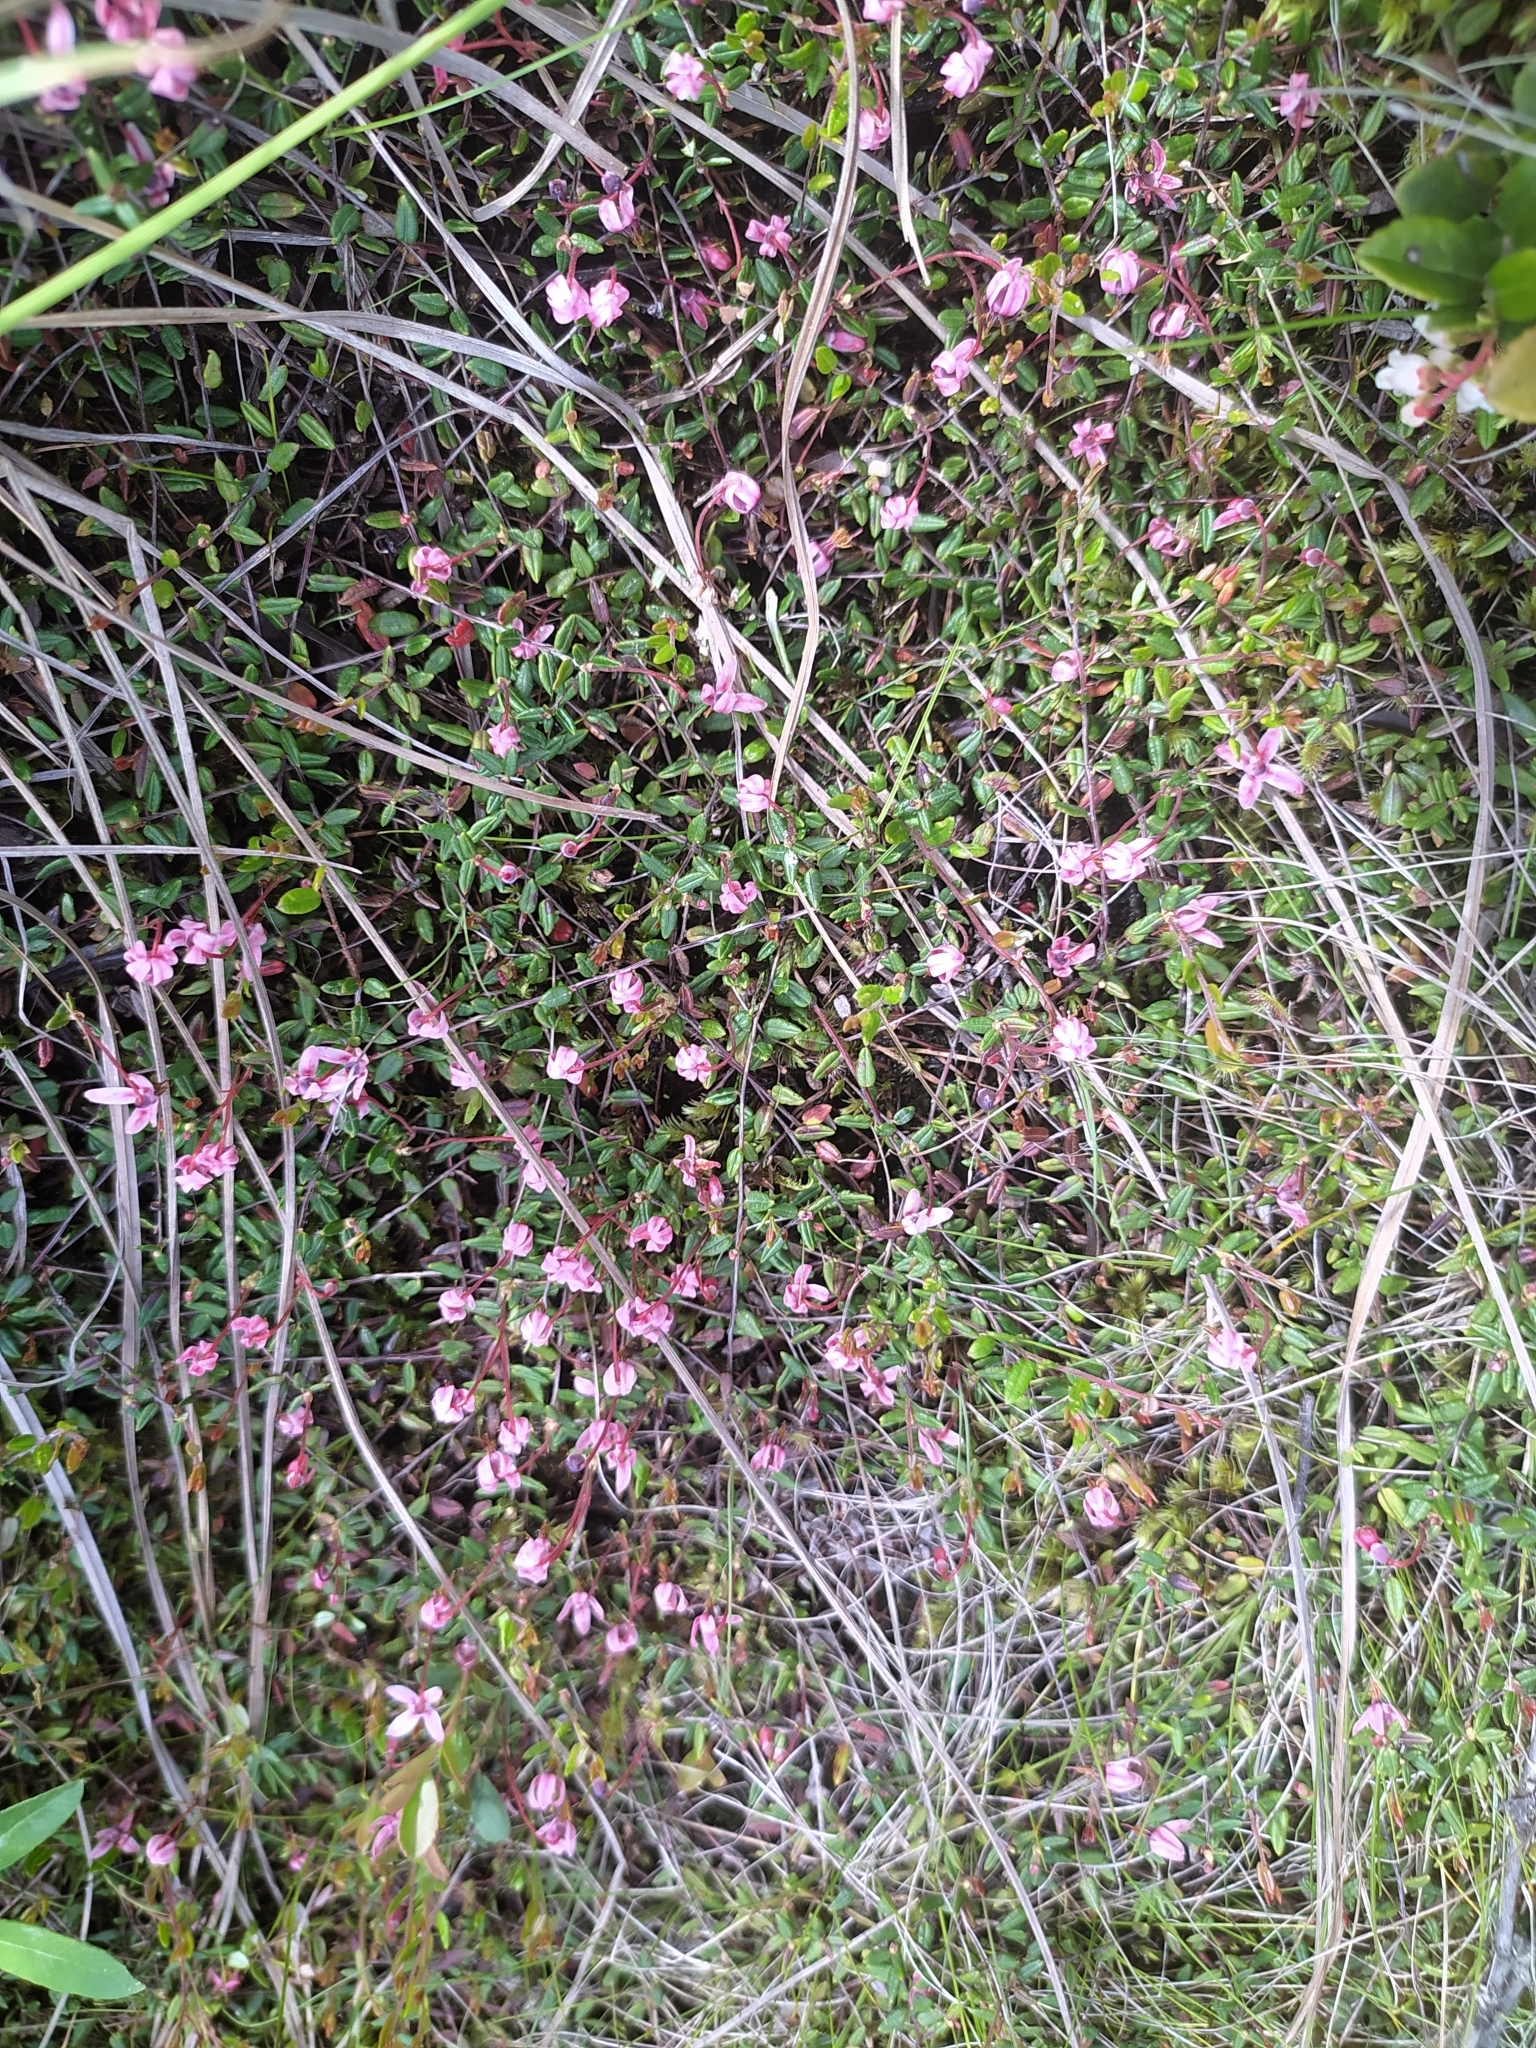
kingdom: Plantae
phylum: Tracheophyta
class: Magnoliopsida
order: Ericales
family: Ericaceae
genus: Vaccinium
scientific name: Vaccinium oxycoccos
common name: Cranberry
